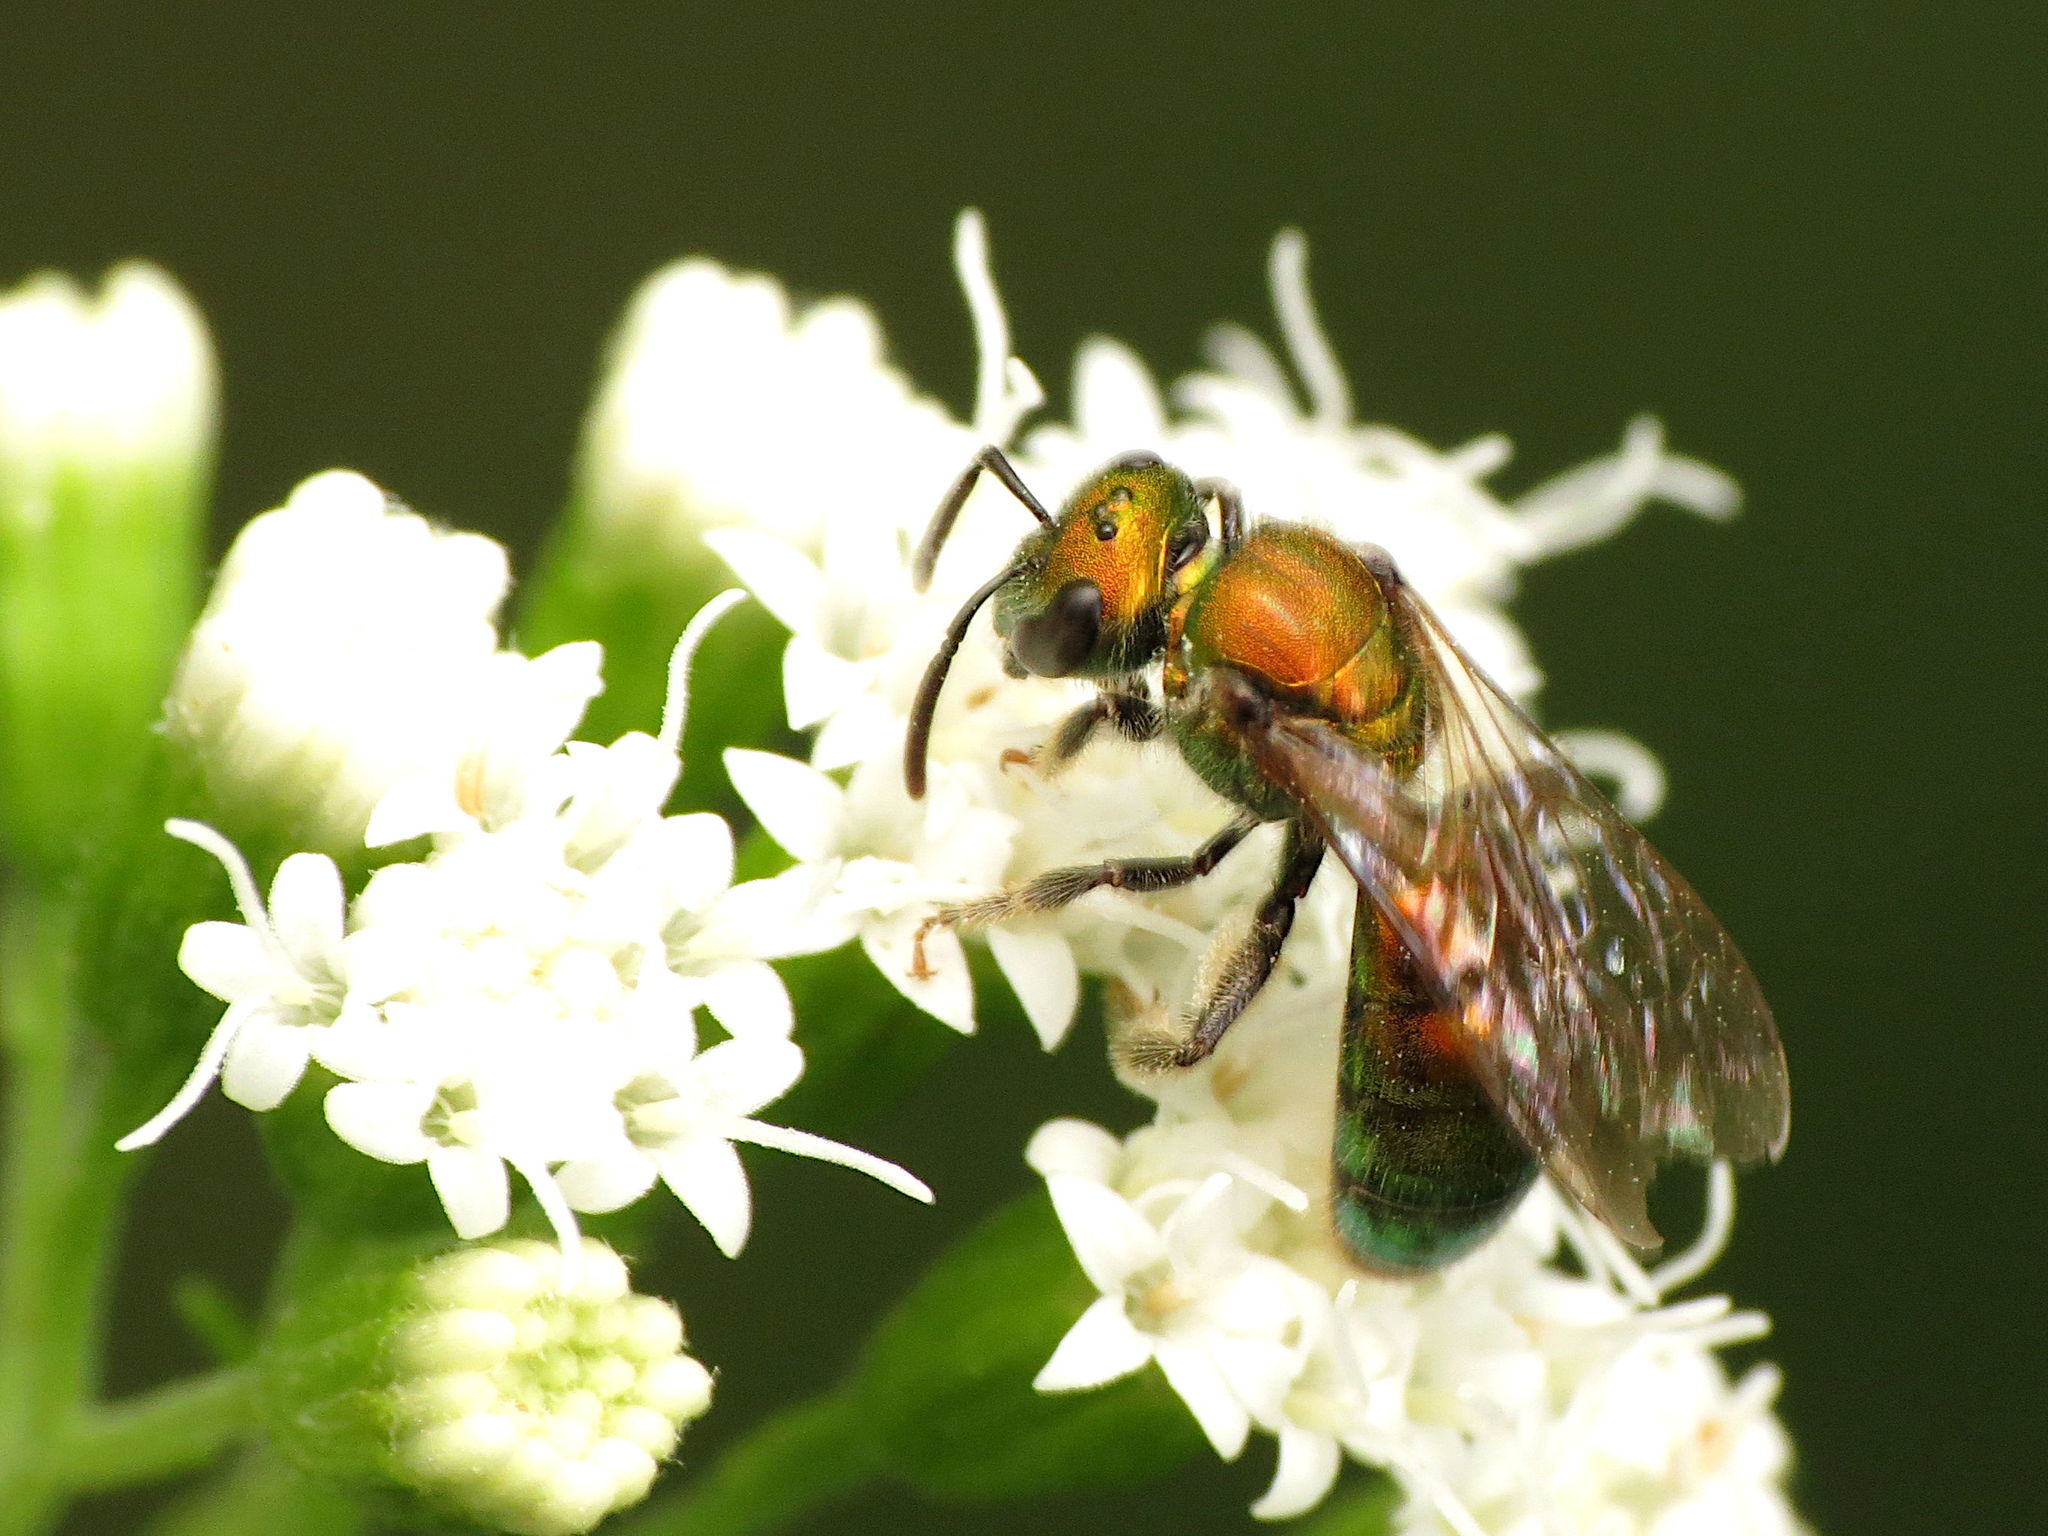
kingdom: Animalia
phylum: Arthropoda
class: Insecta
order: Hymenoptera
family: Halictidae
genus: Augochlora
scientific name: Augochlora pura
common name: Pure green sweat bee
